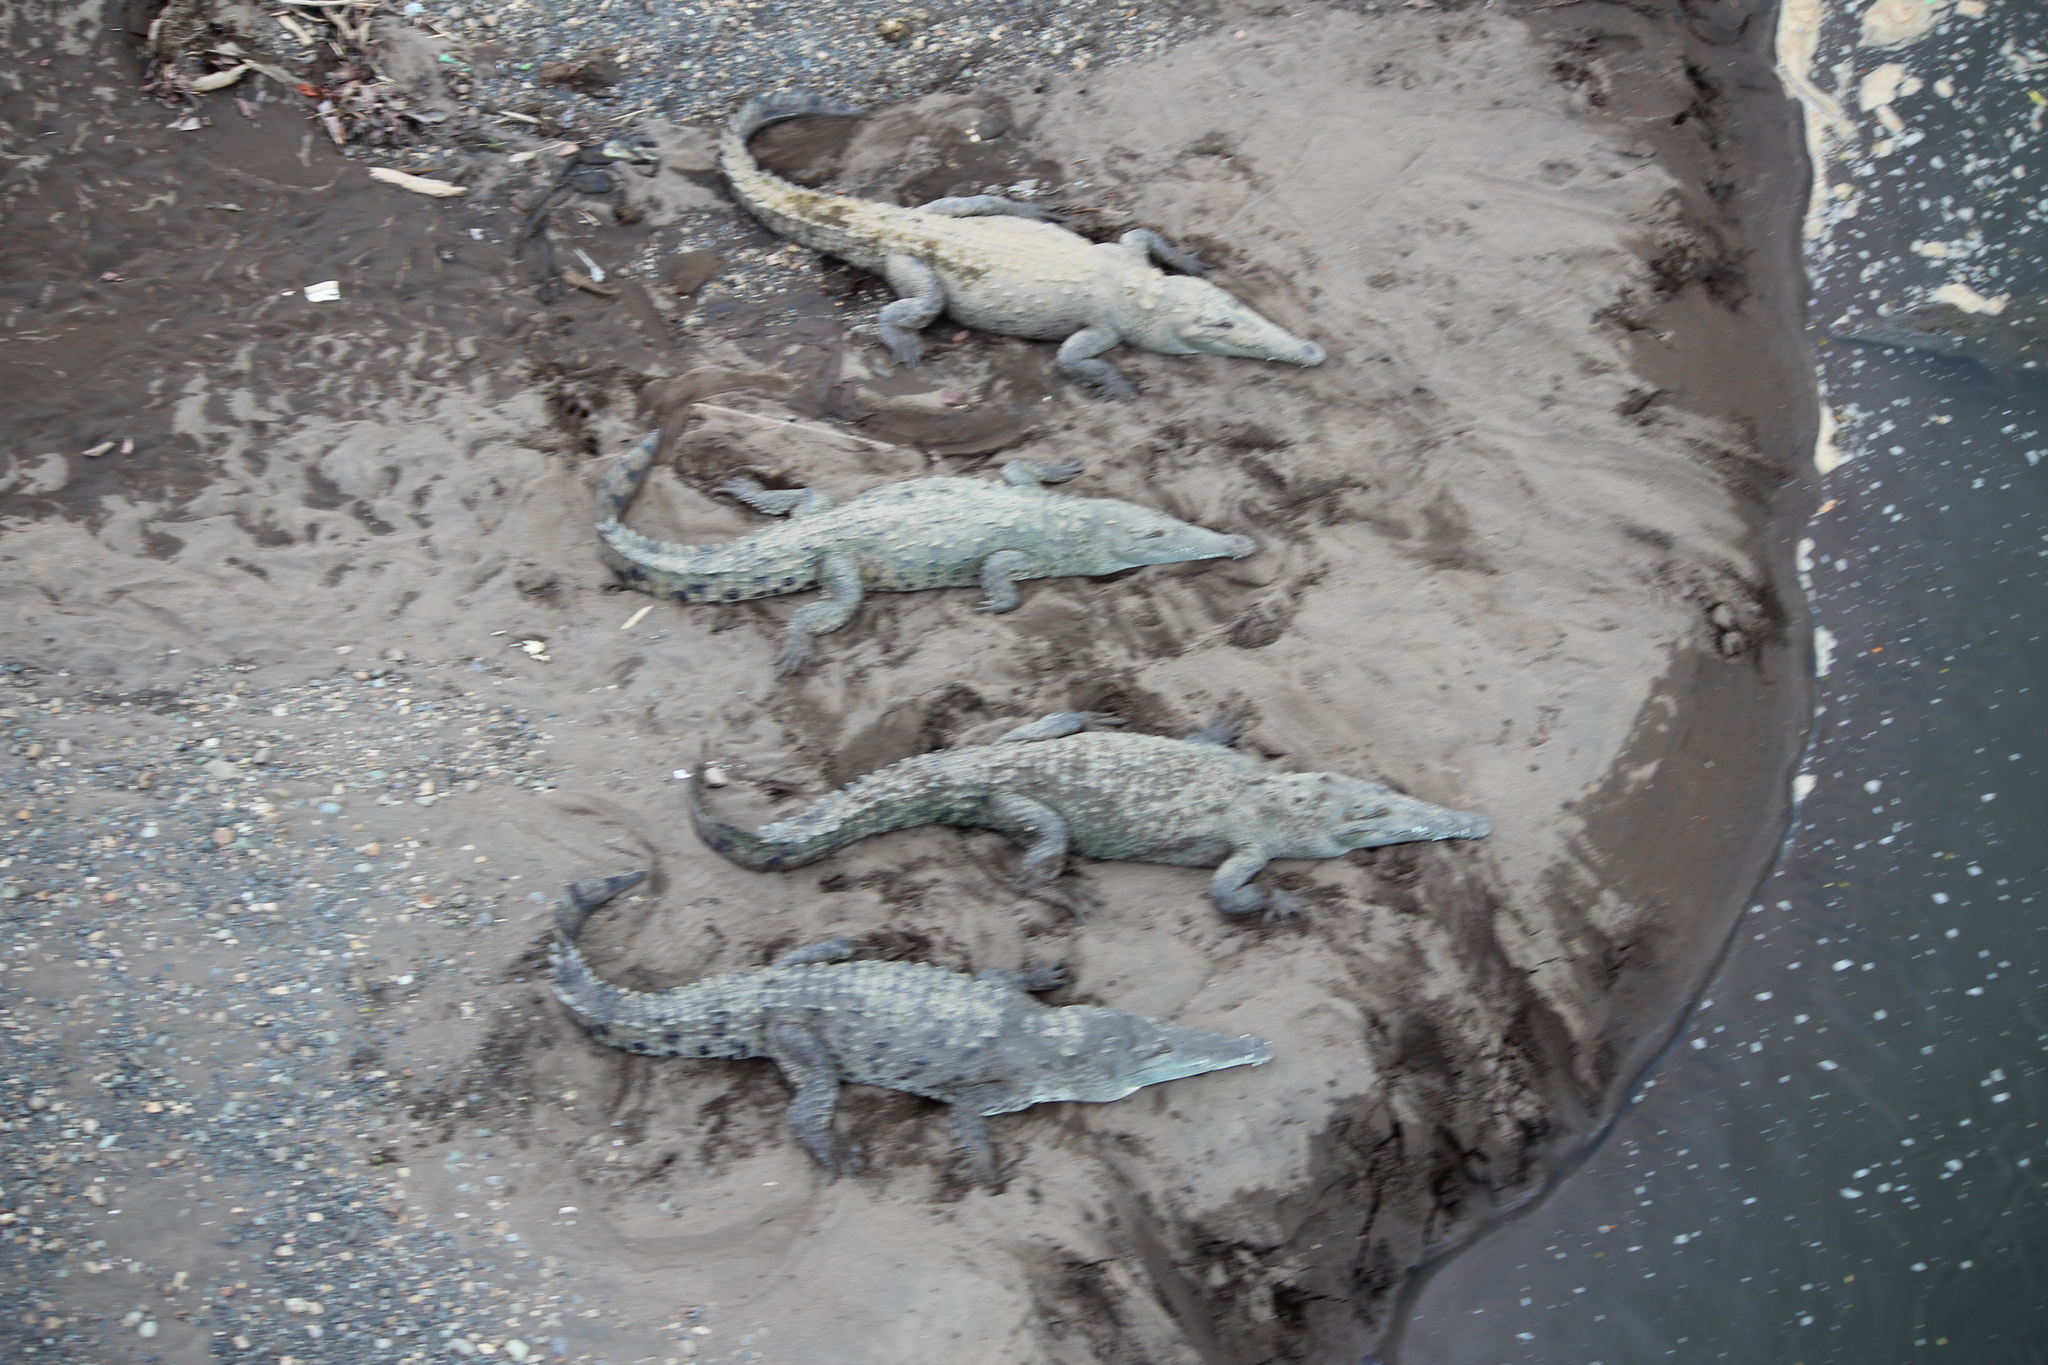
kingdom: Animalia
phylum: Chordata
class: Crocodylia
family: Crocodylidae
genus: Crocodylus
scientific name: Crocodylus acutus
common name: American crocodile
